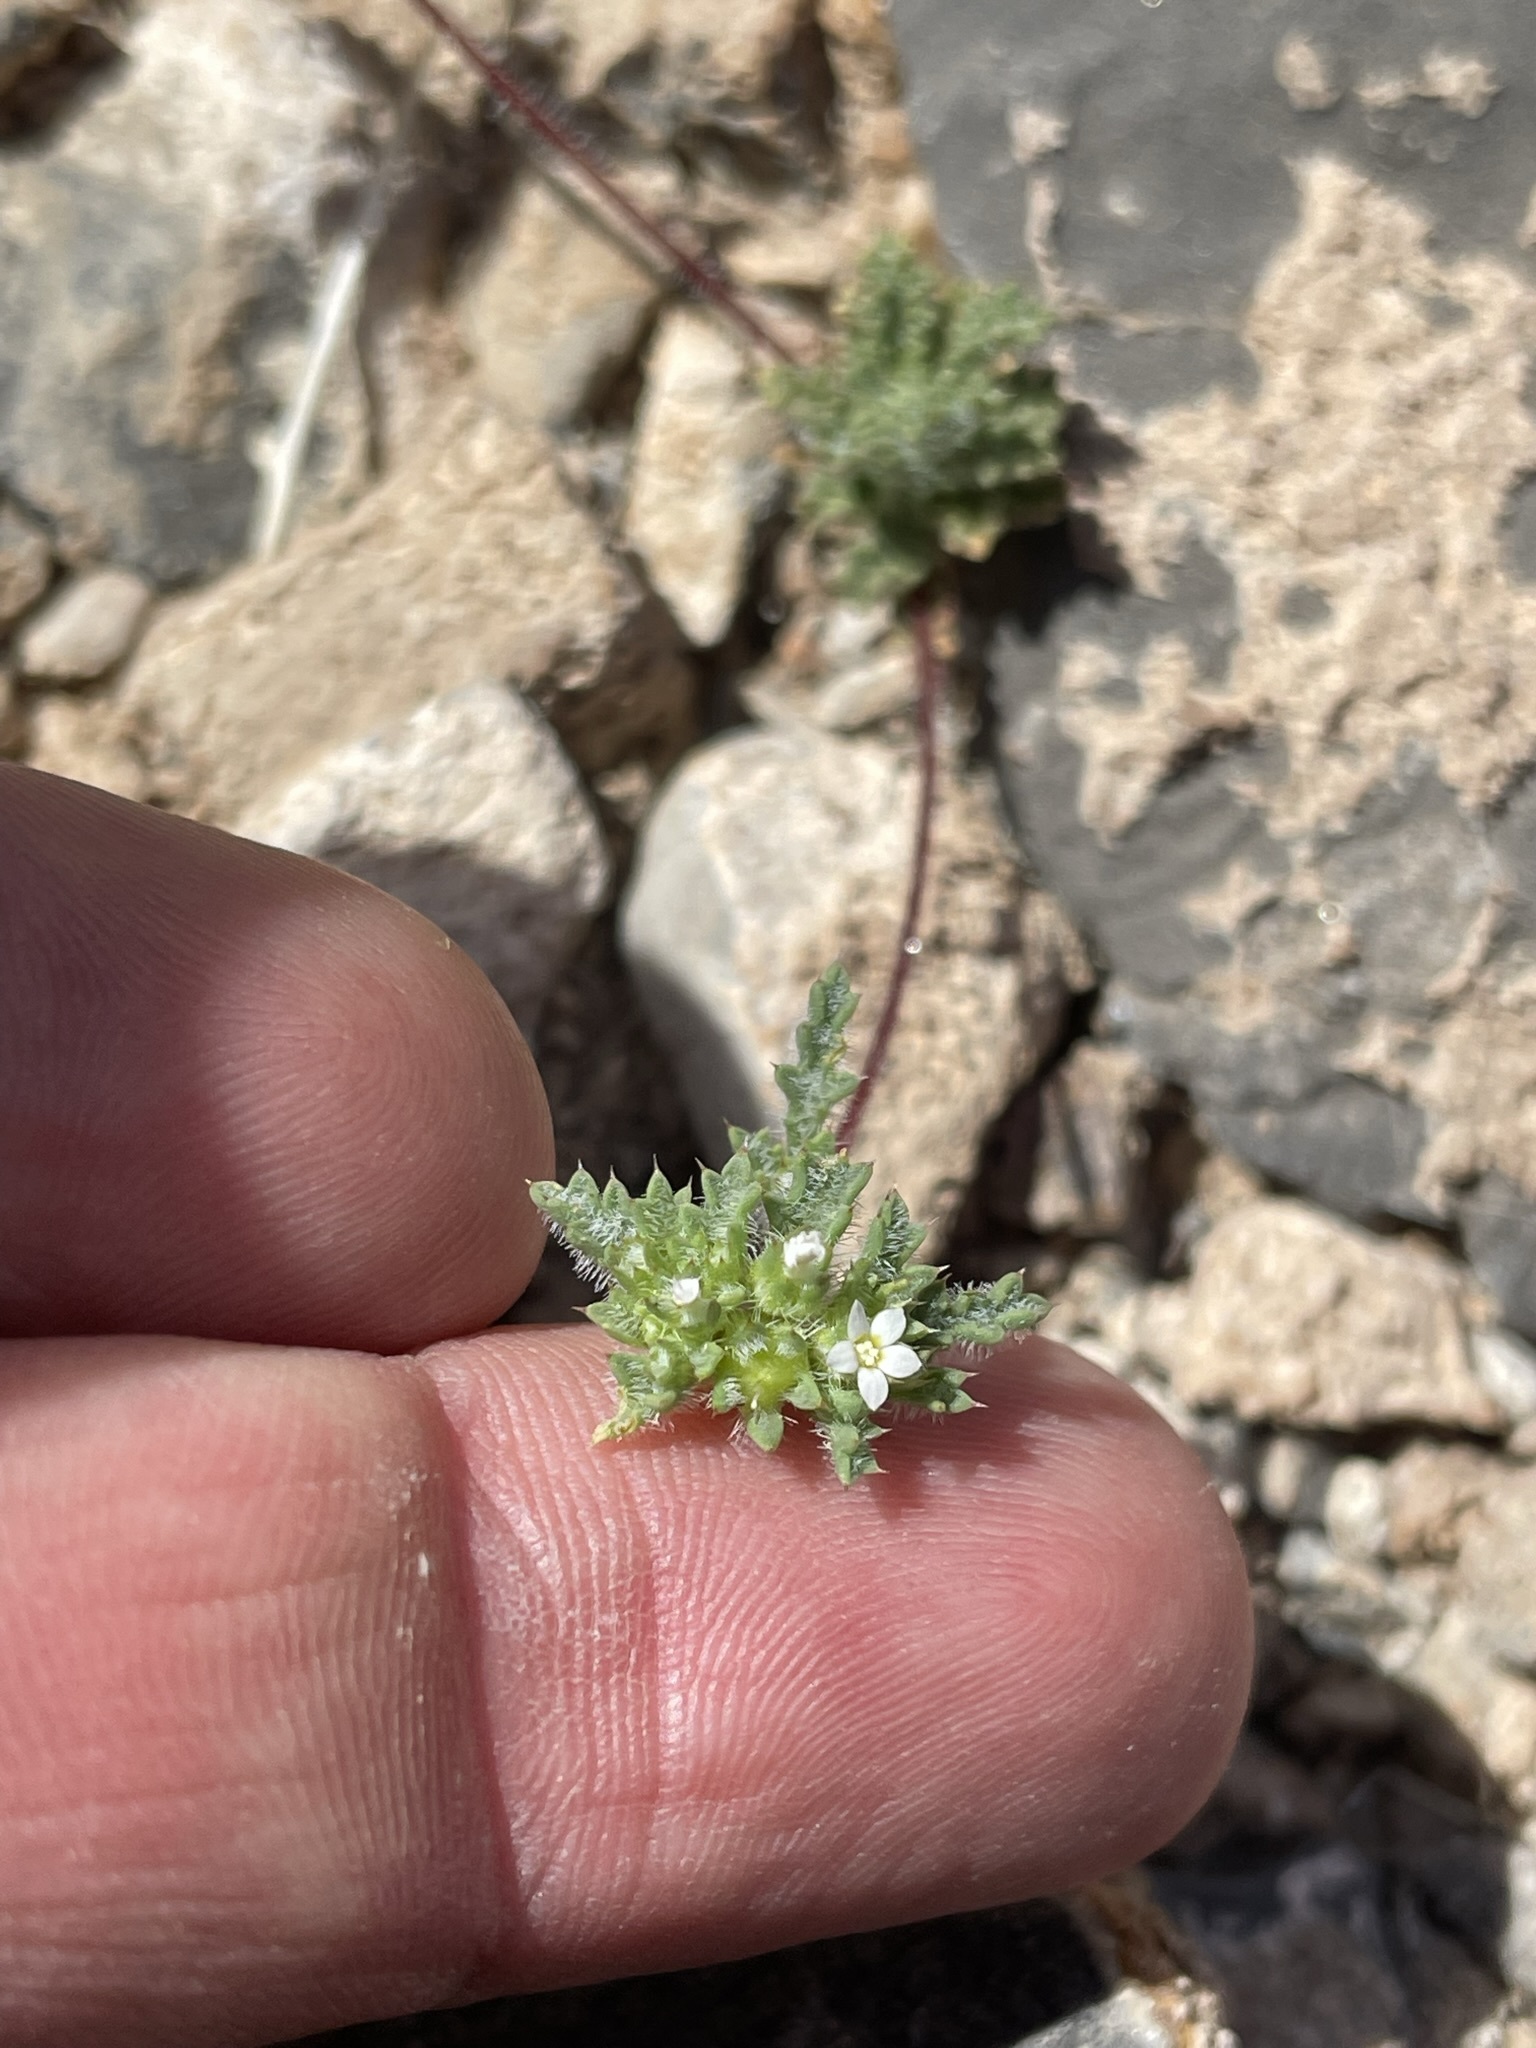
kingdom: Plantae
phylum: Tracheophyta
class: Magnoliopsida
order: Ericales
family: Polemoniaceae
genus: Ipomopsis
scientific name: Ipomopsis polycladon
